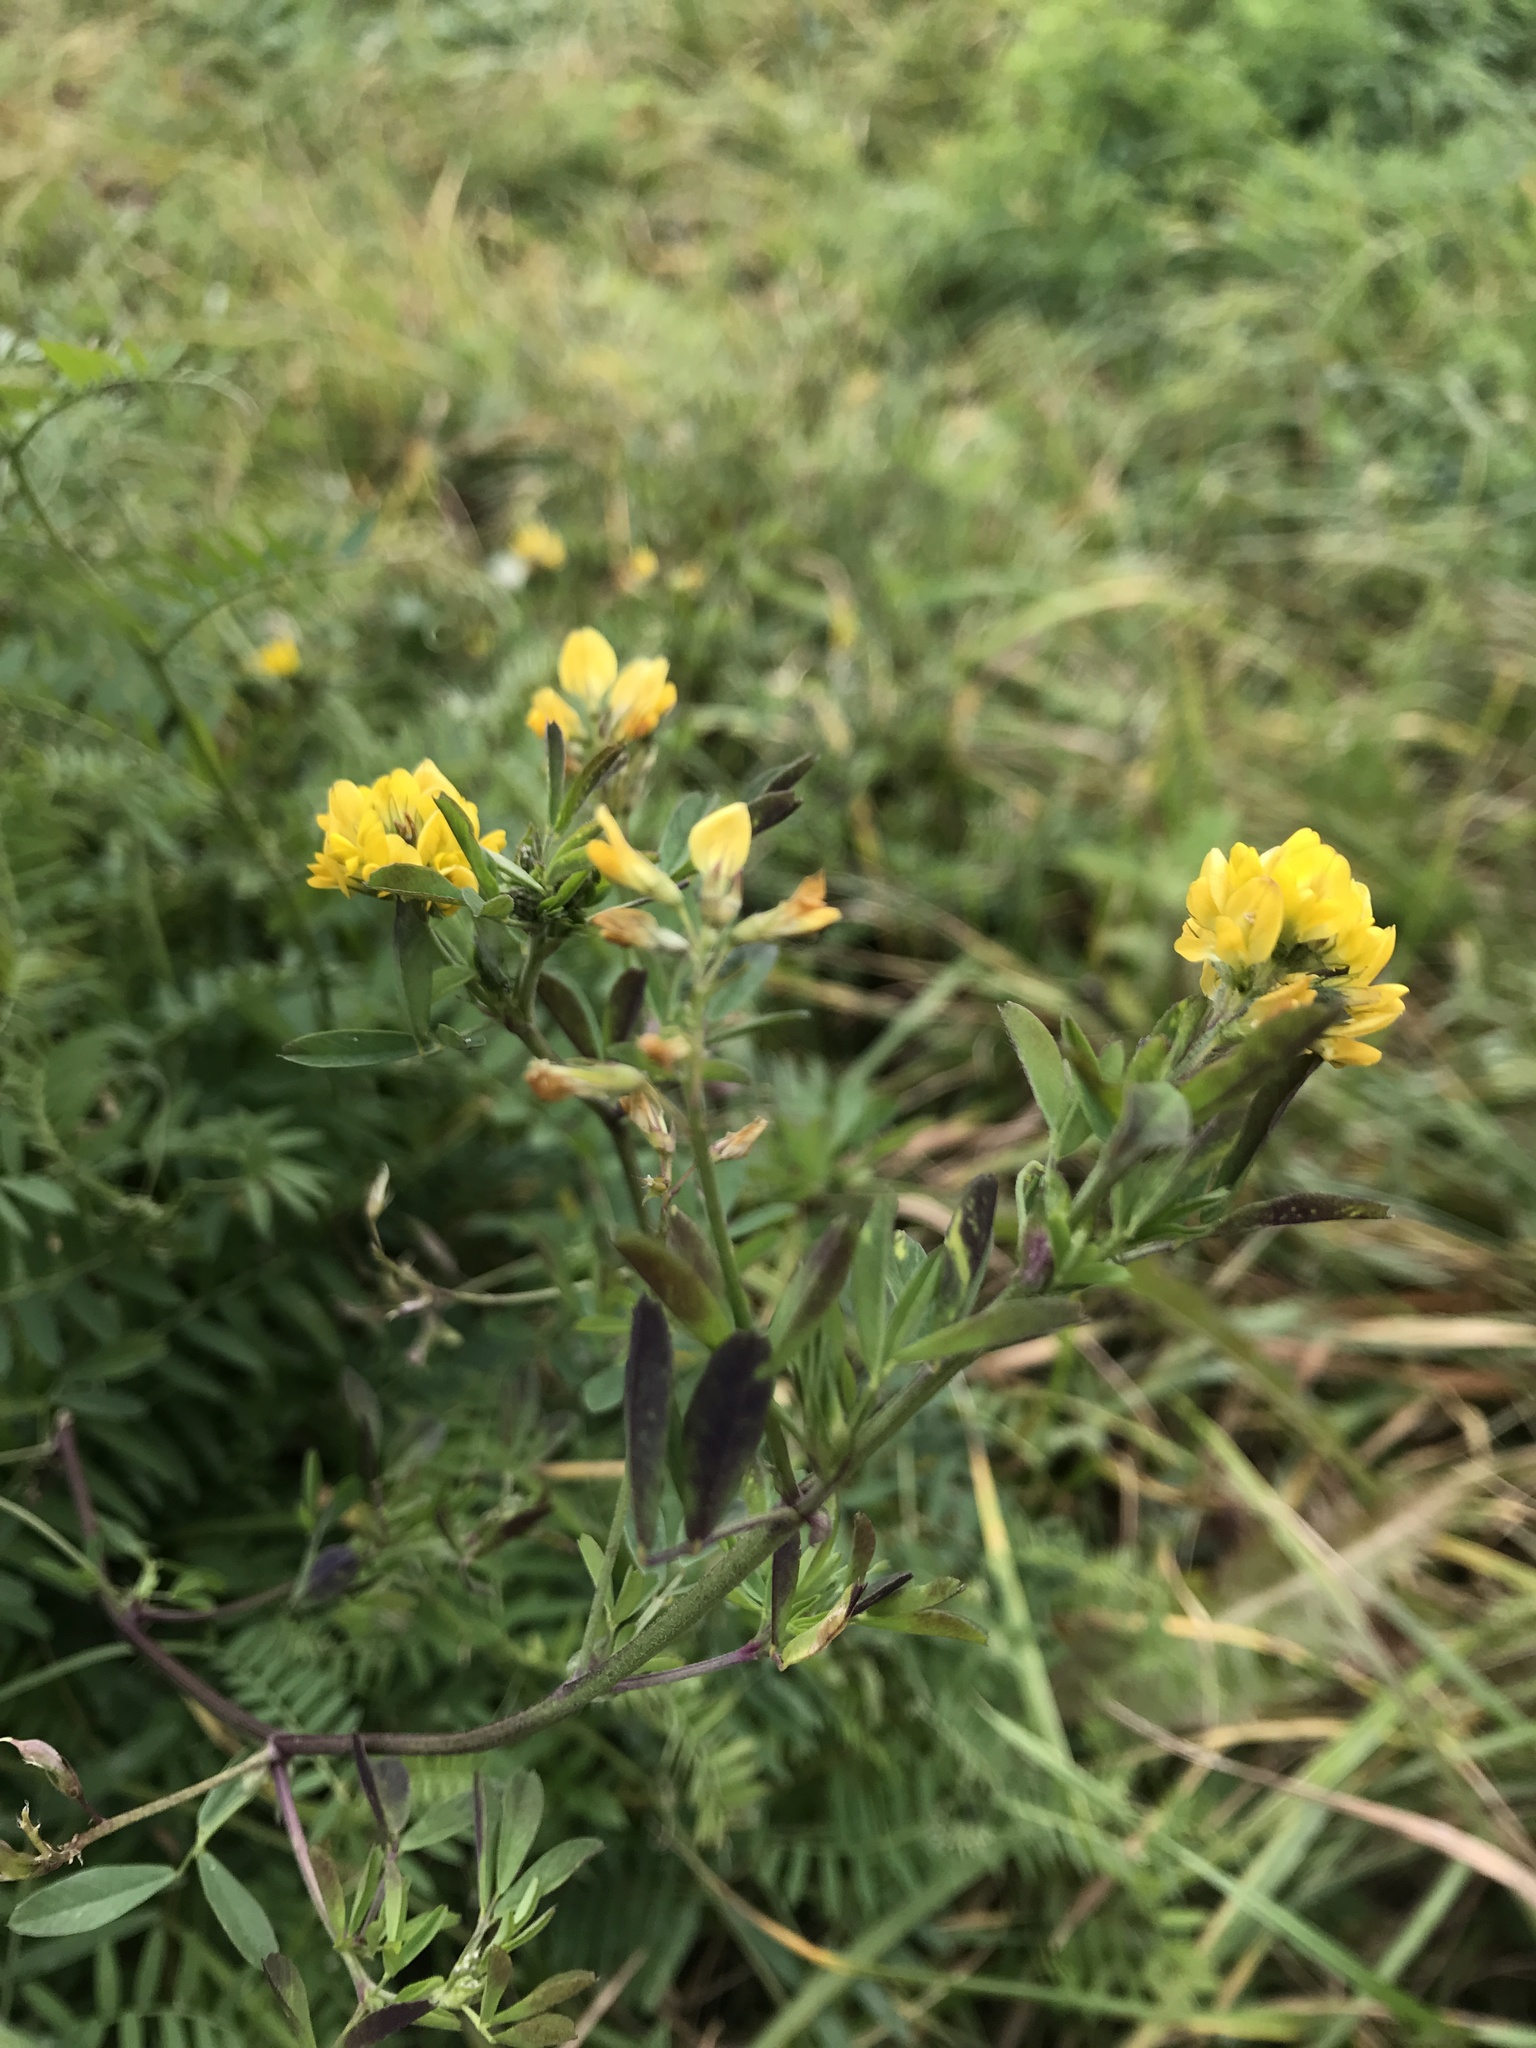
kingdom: Plantae
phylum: Tracheophyta
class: Magnoliopsida
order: Fabales
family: Fabaceae
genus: Medicago
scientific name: Medicago falcata
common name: Sickle medick
